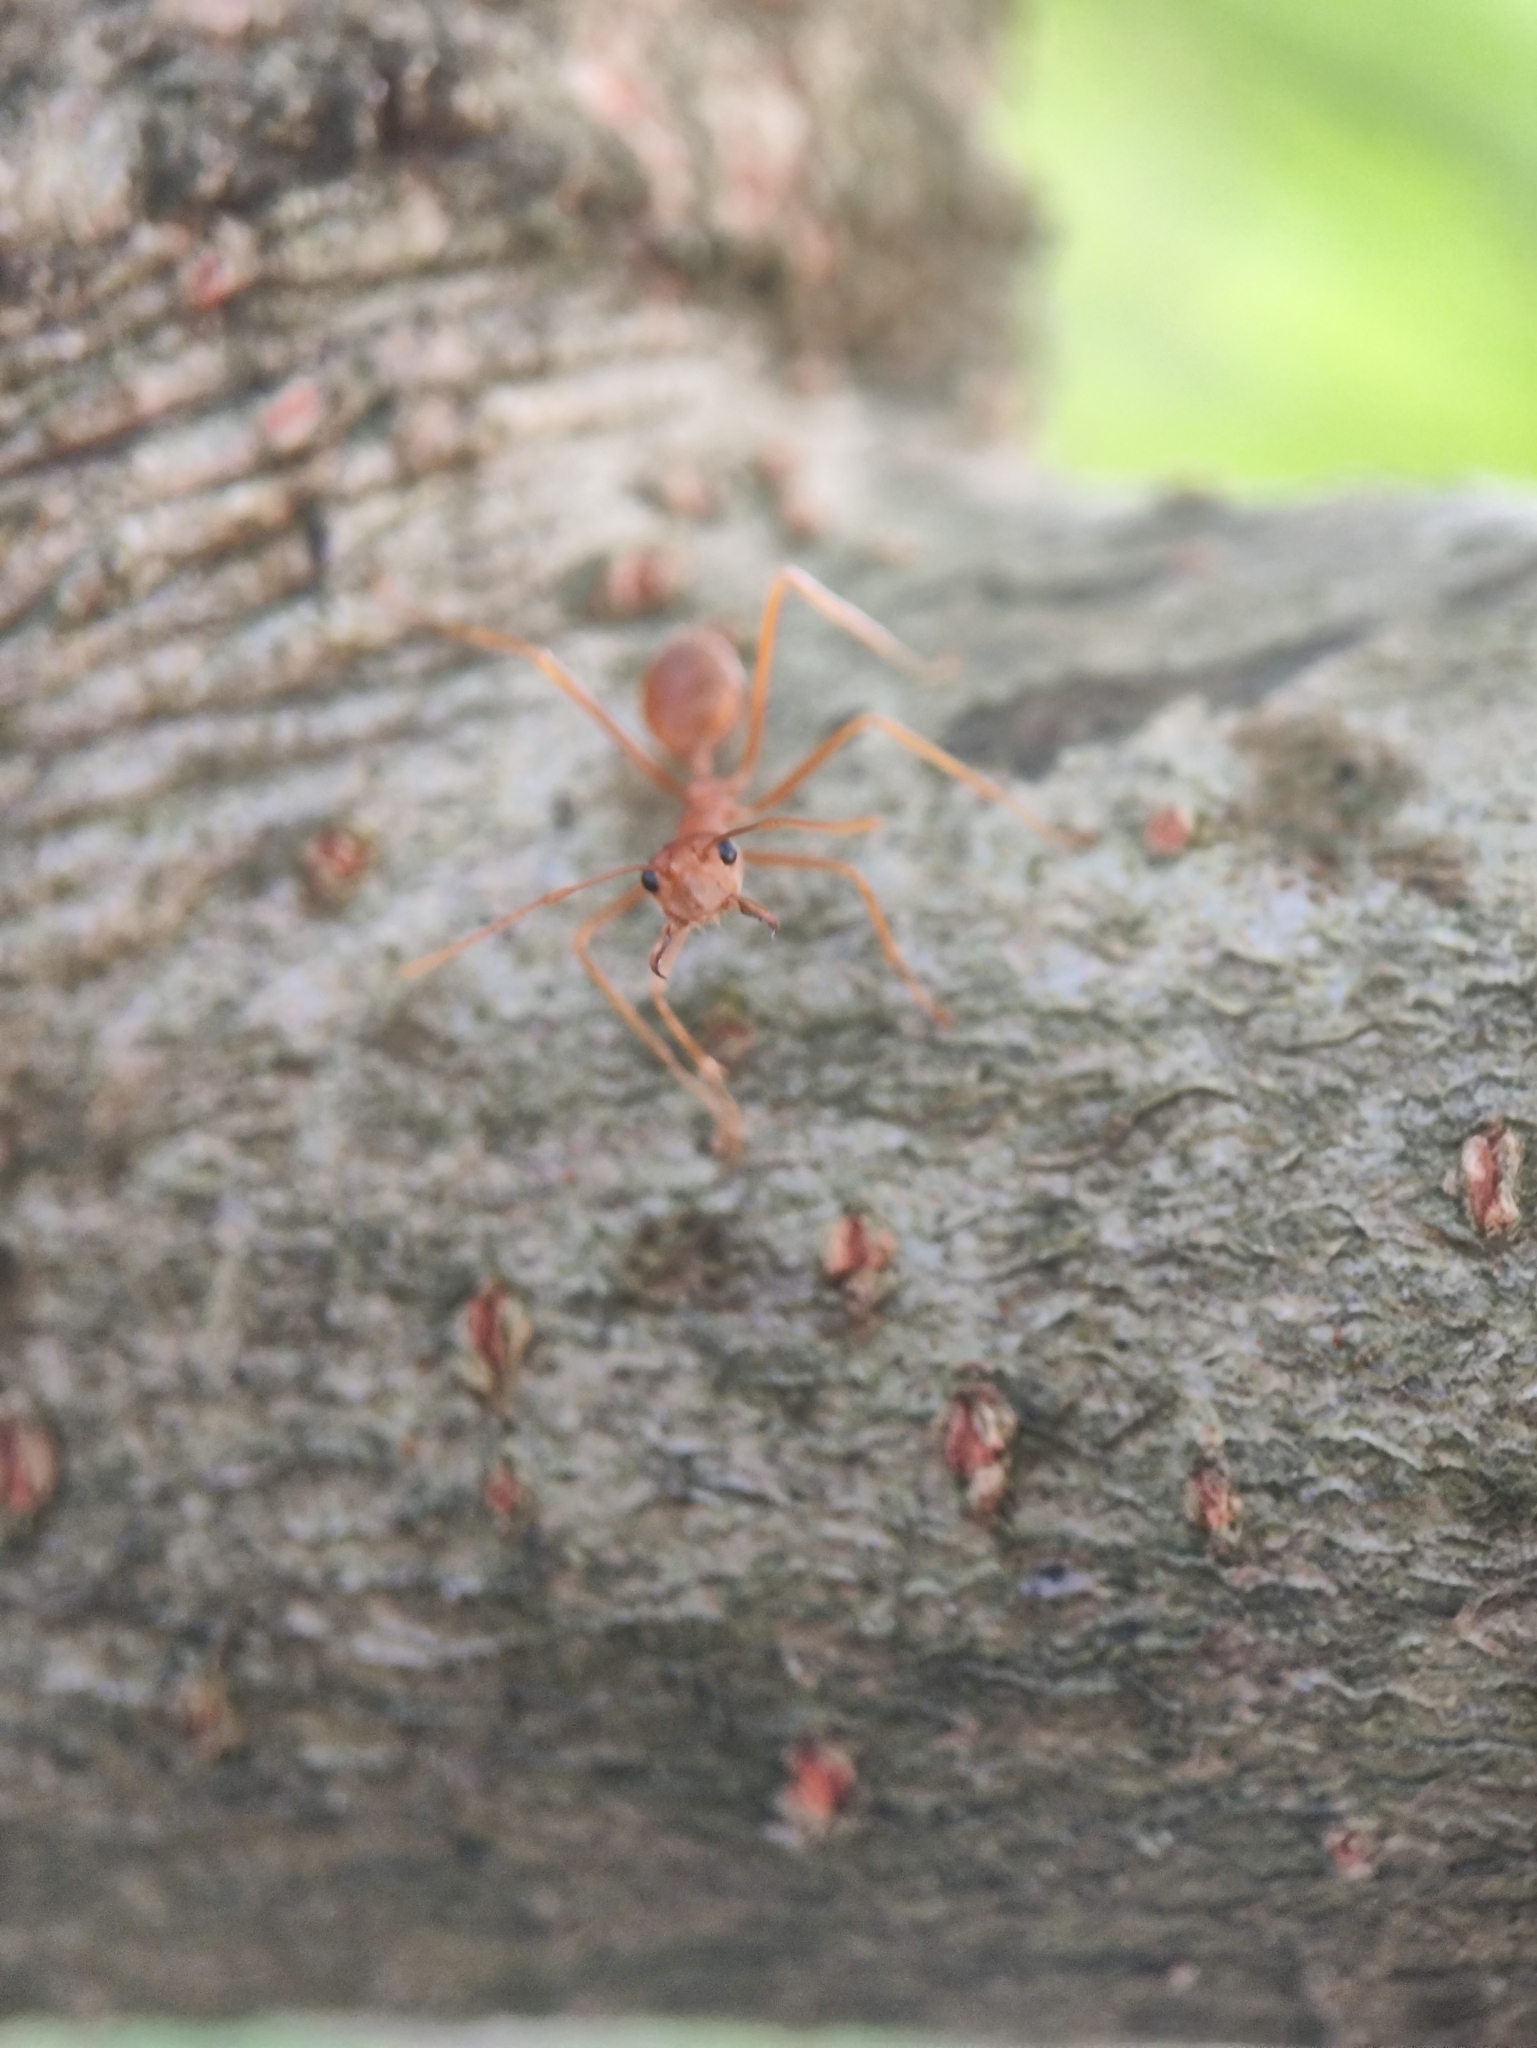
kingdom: Animalia
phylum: Arthropoda
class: Insecta
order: Hymenoptera
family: Formicidae
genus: Oecophylla
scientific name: Oecophylla smaragdina
